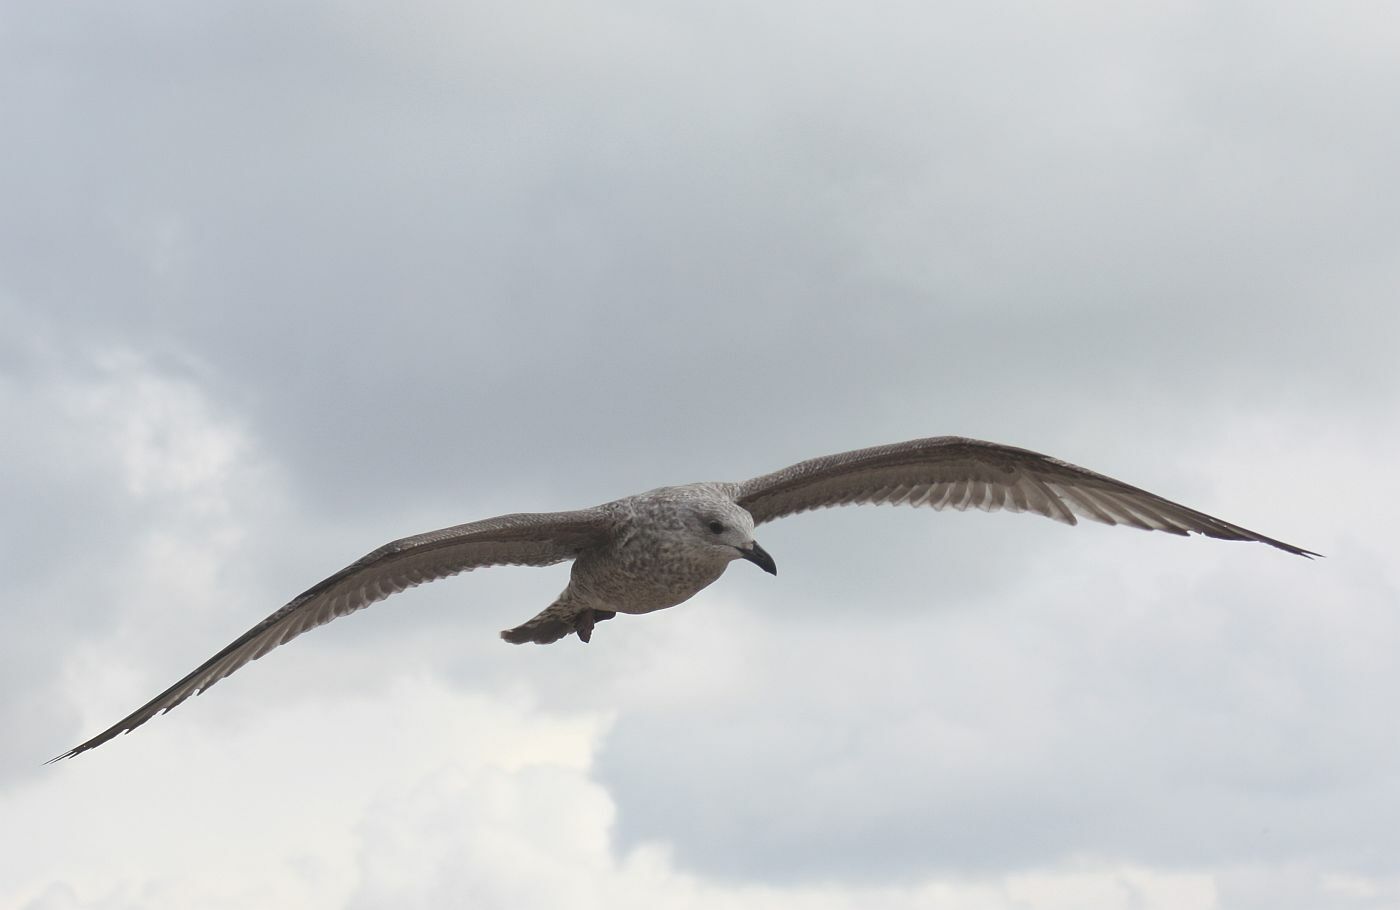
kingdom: Animalia
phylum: Chordata
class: Aves
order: Charadriiformes
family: Laridae
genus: Larus
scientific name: Larus argentatus
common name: Herring gull
